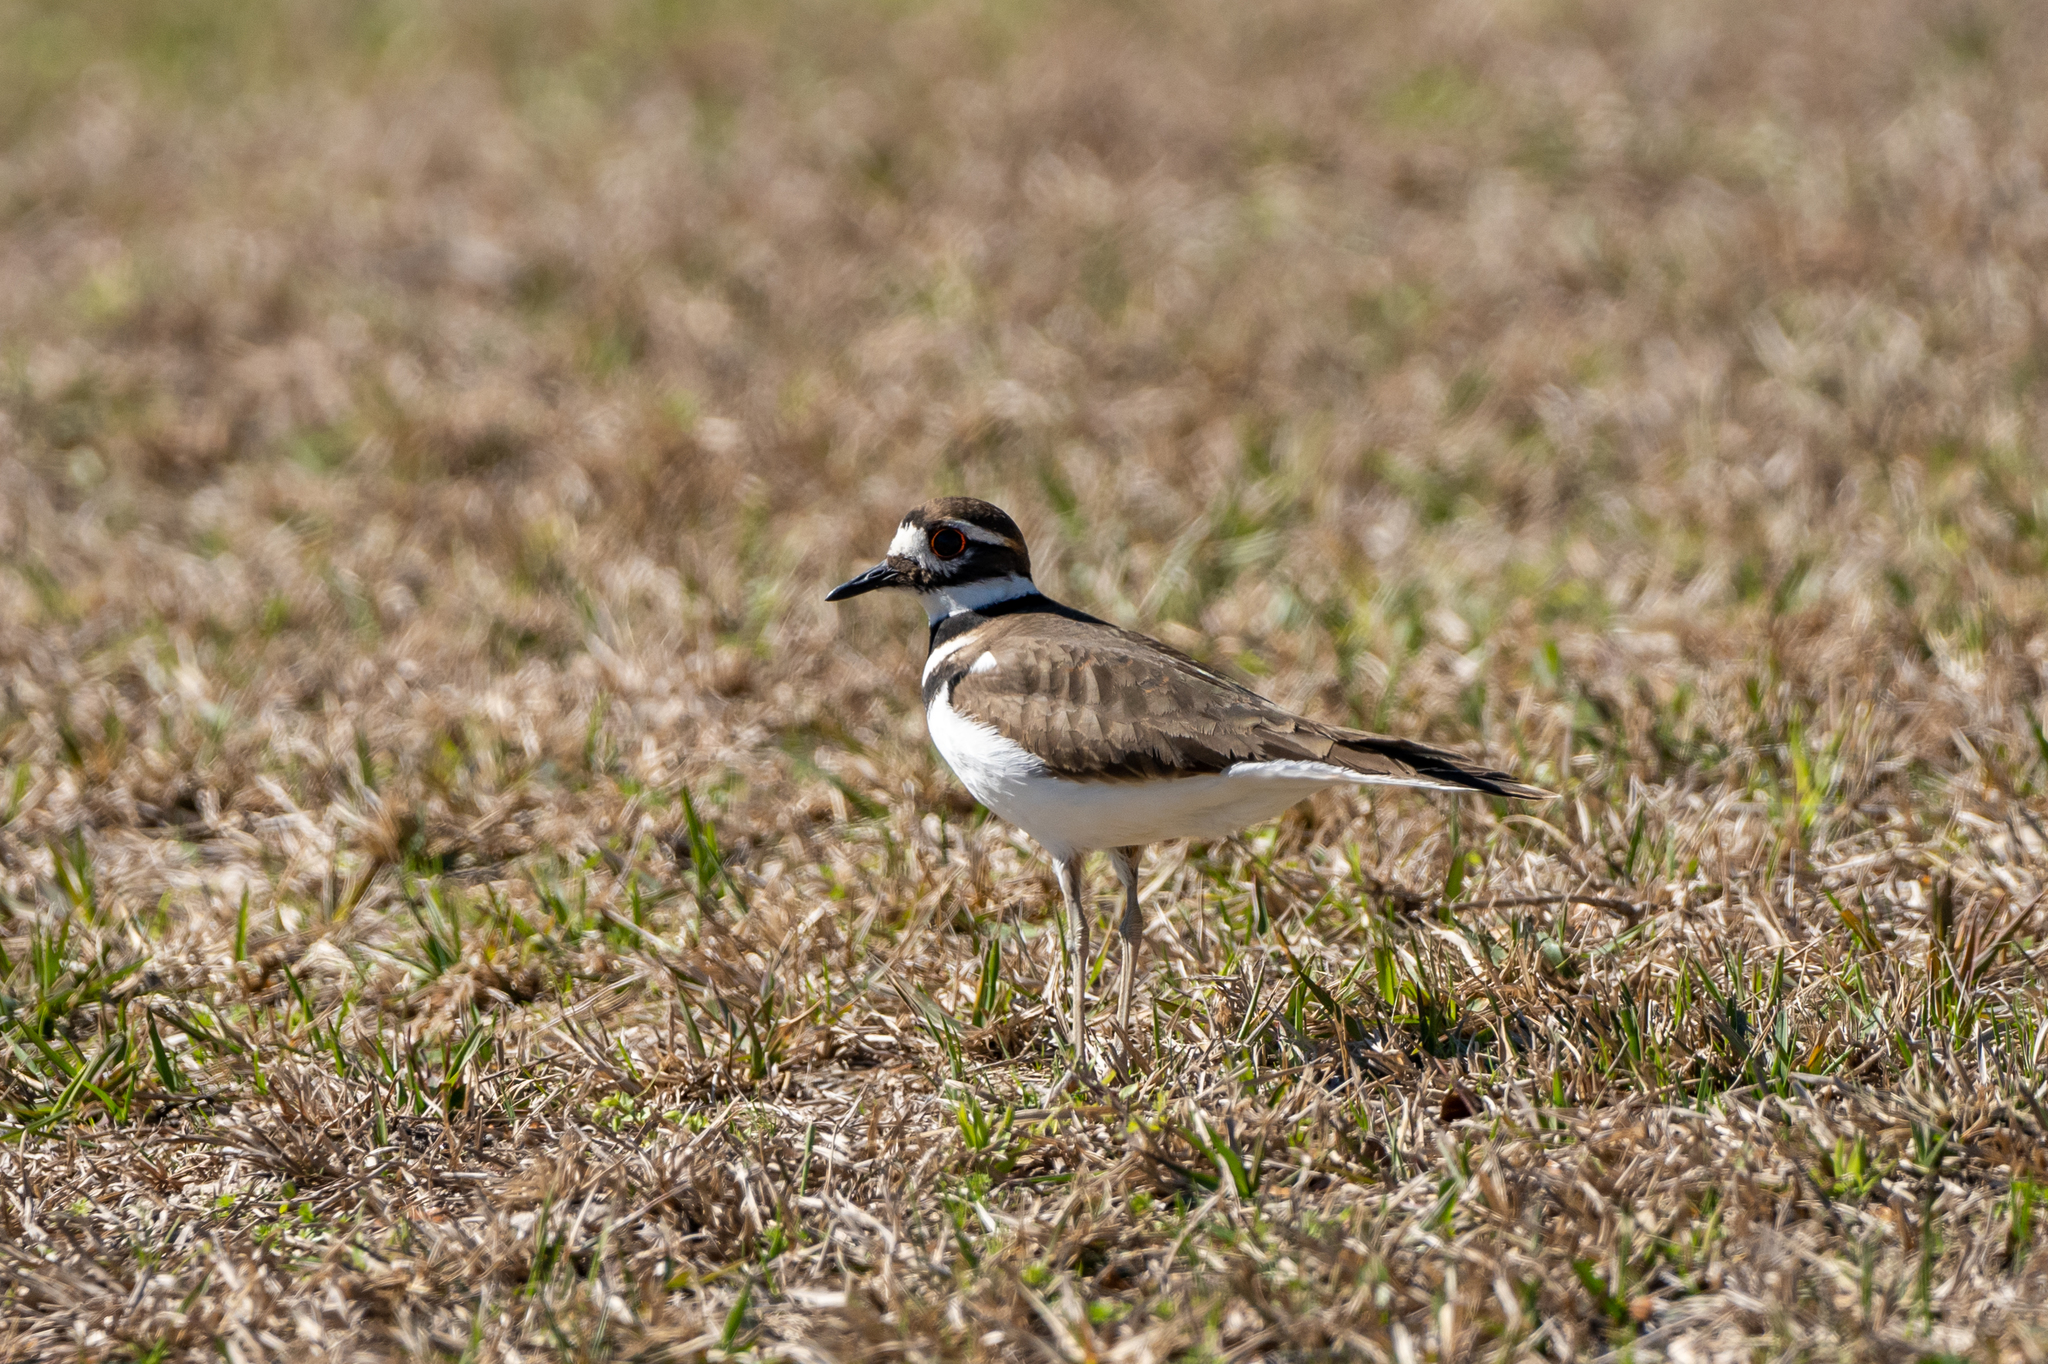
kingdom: Animalia
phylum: Chordata
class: Aves
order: Charadriiformes
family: Charadriidae
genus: Charadrius
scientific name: Charadrius vociferus
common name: Killdeer
